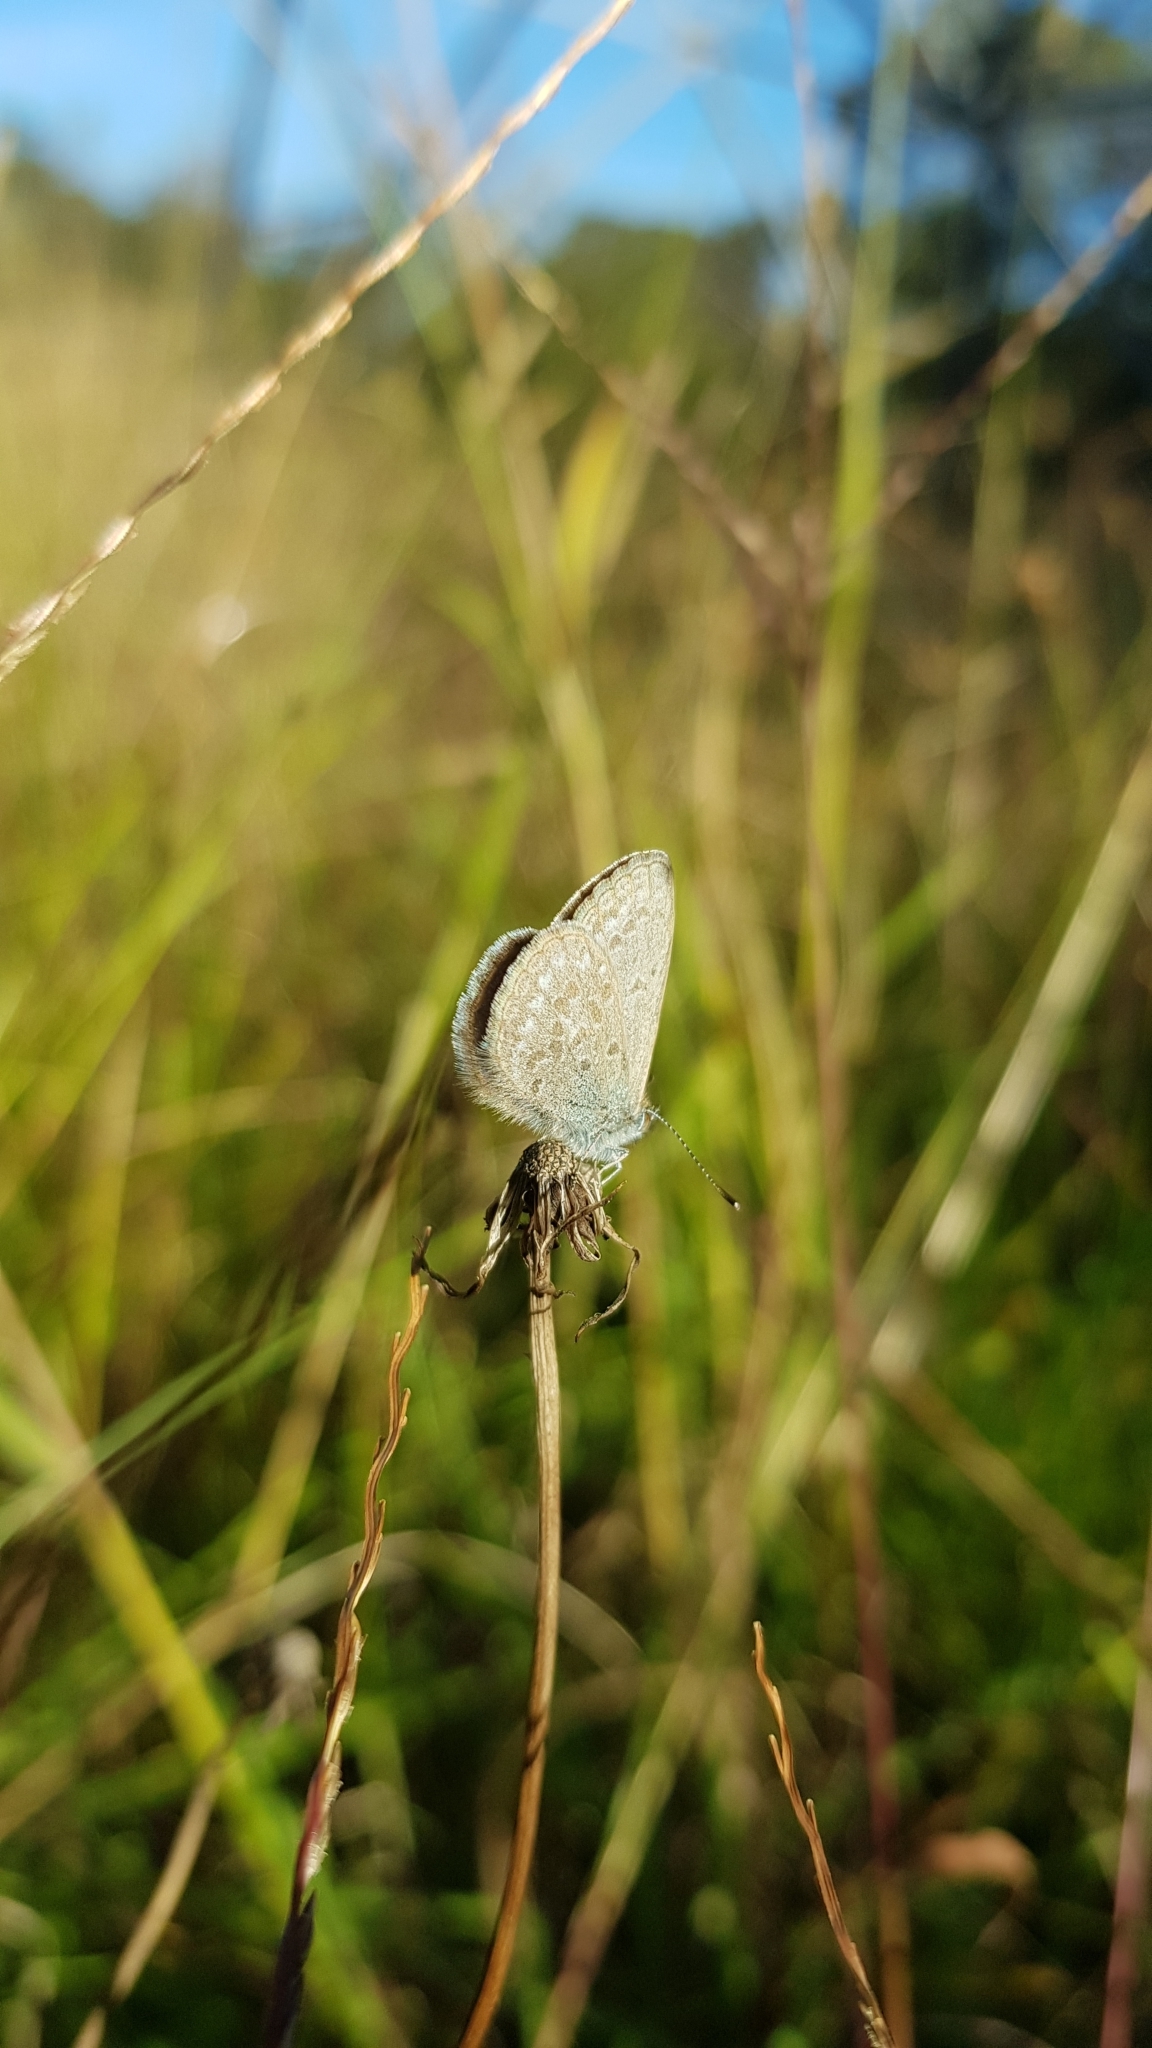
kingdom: Animalia
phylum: Arthropoda
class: Insecta
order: Lepidoptera
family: Lycaenidae
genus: Zizina
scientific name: Zizina labradus
